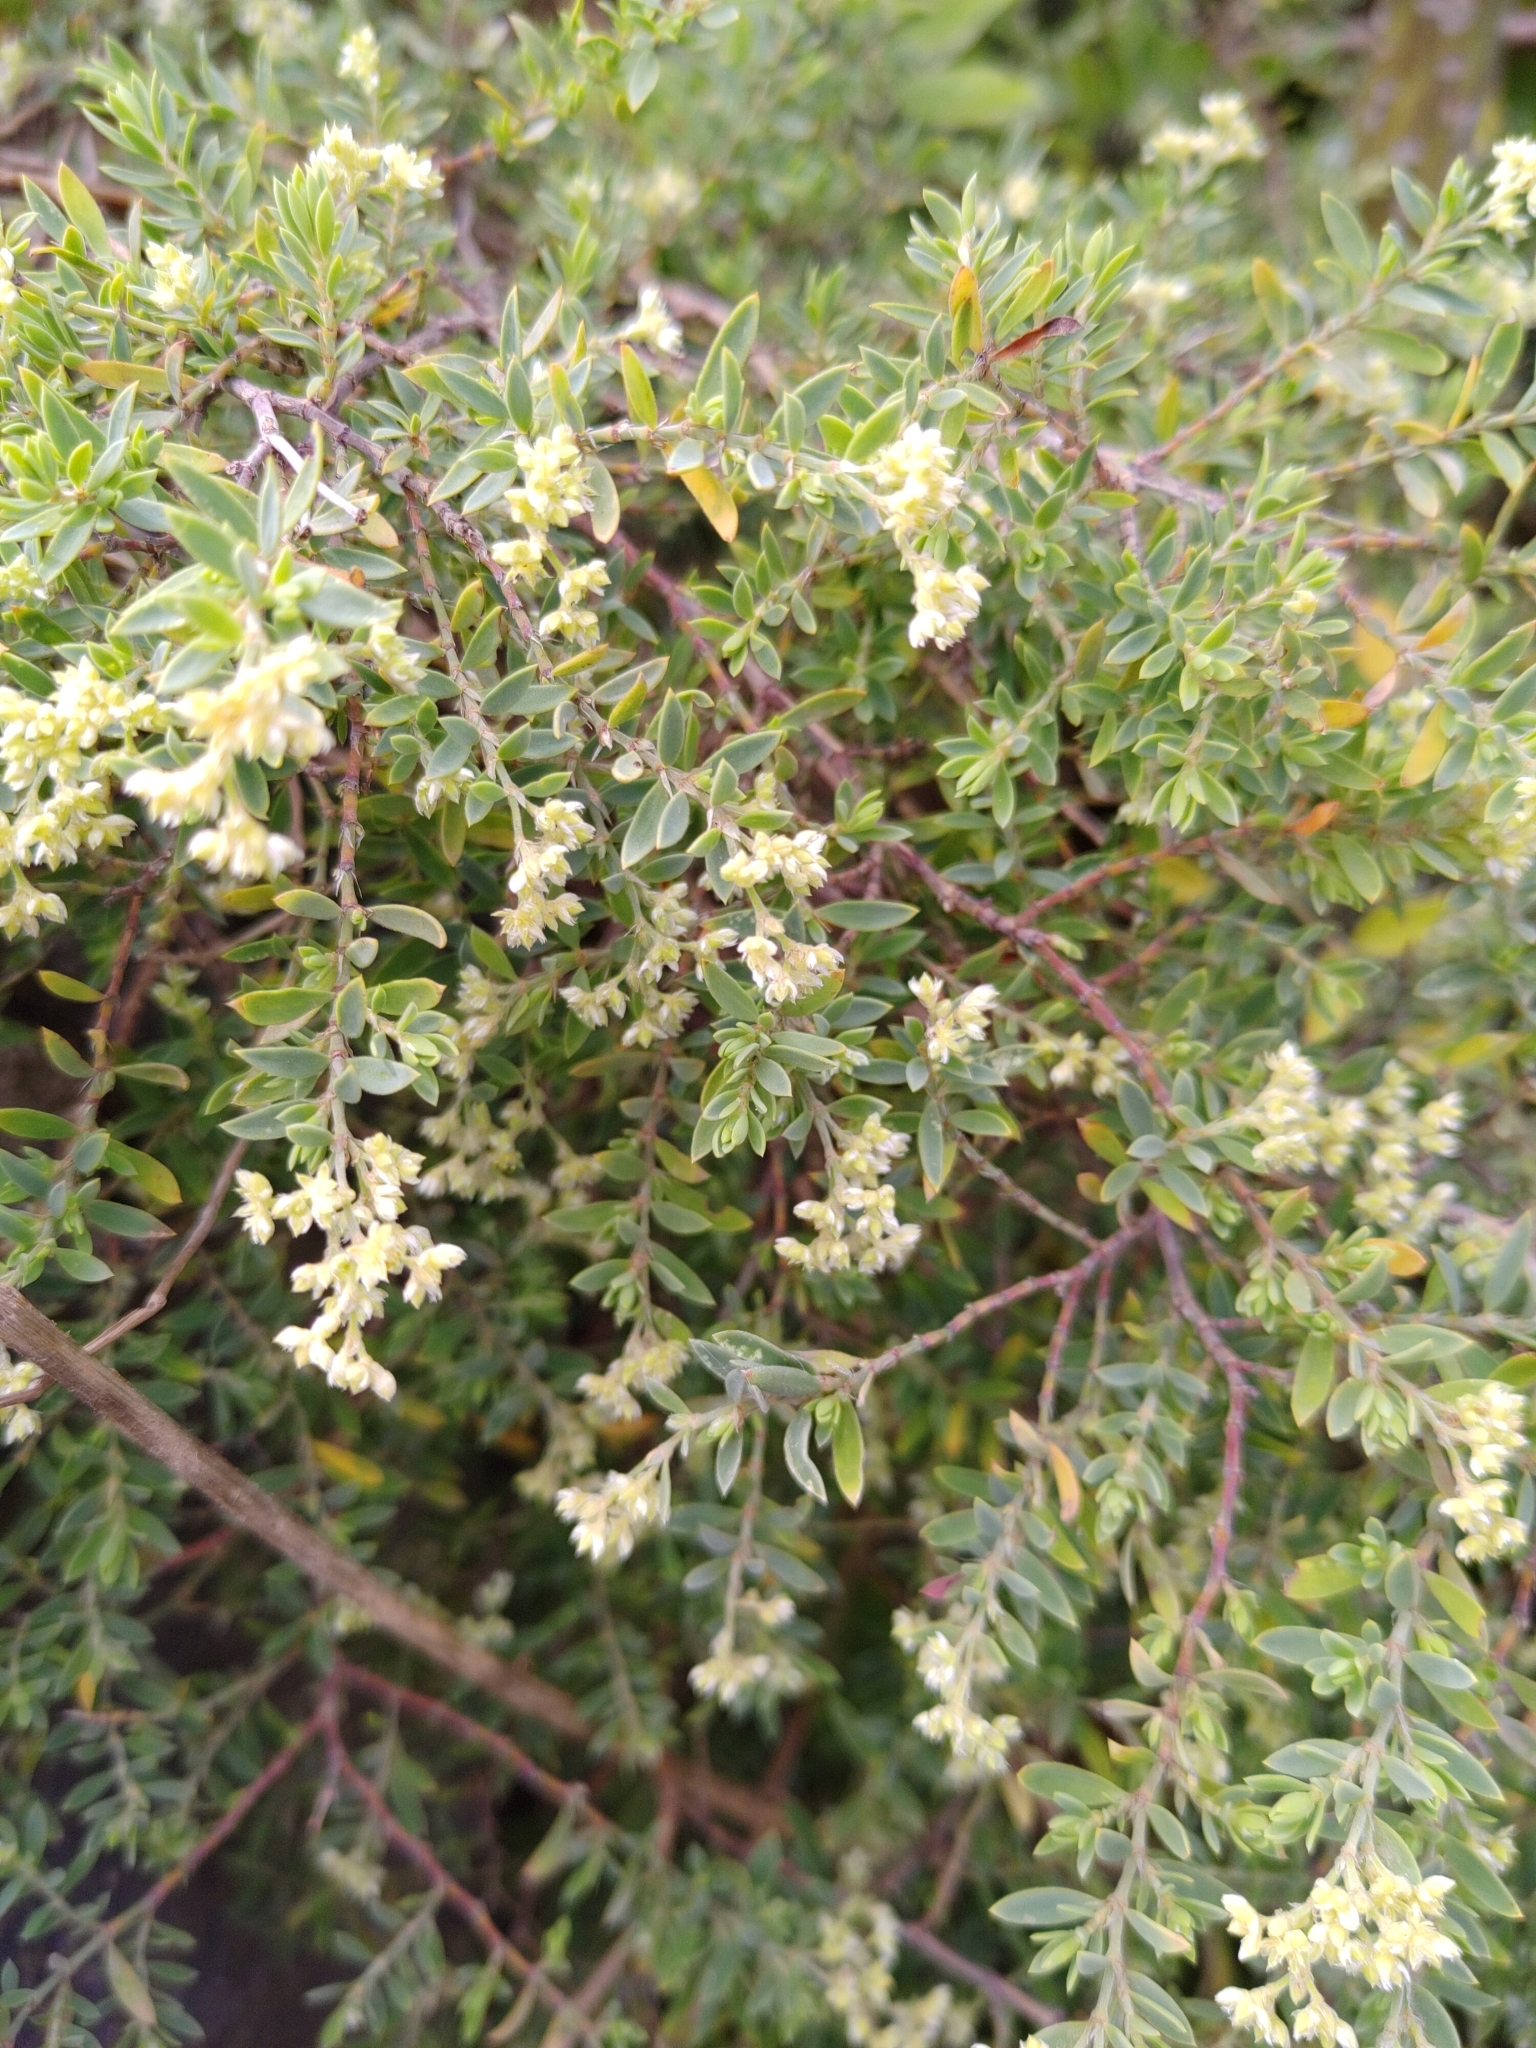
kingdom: Plantae
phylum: Tracheophyta
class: Magnoliopsida
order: Caryophyllales
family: Caryophyllaceae
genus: Paronychia
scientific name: Paronychia canariensis
